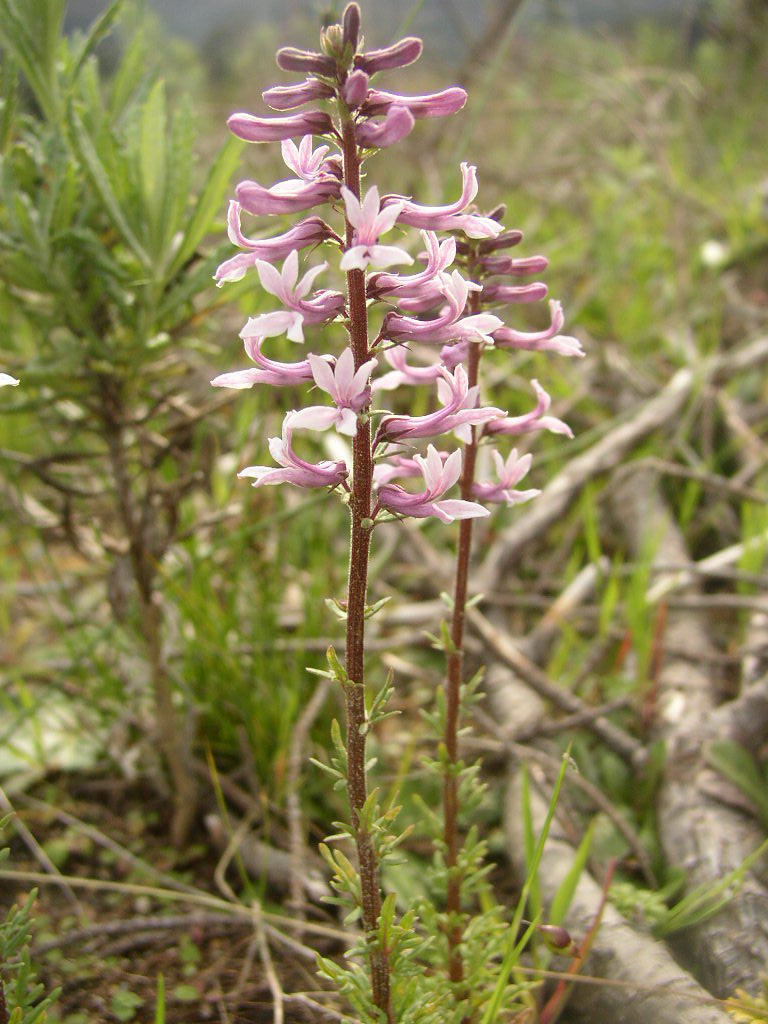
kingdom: Plantae
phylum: Tracheophyta
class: Magnoliopsida
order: Asterales
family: Campanulaceae
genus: Cyphia
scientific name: Cyphia bulbosa
